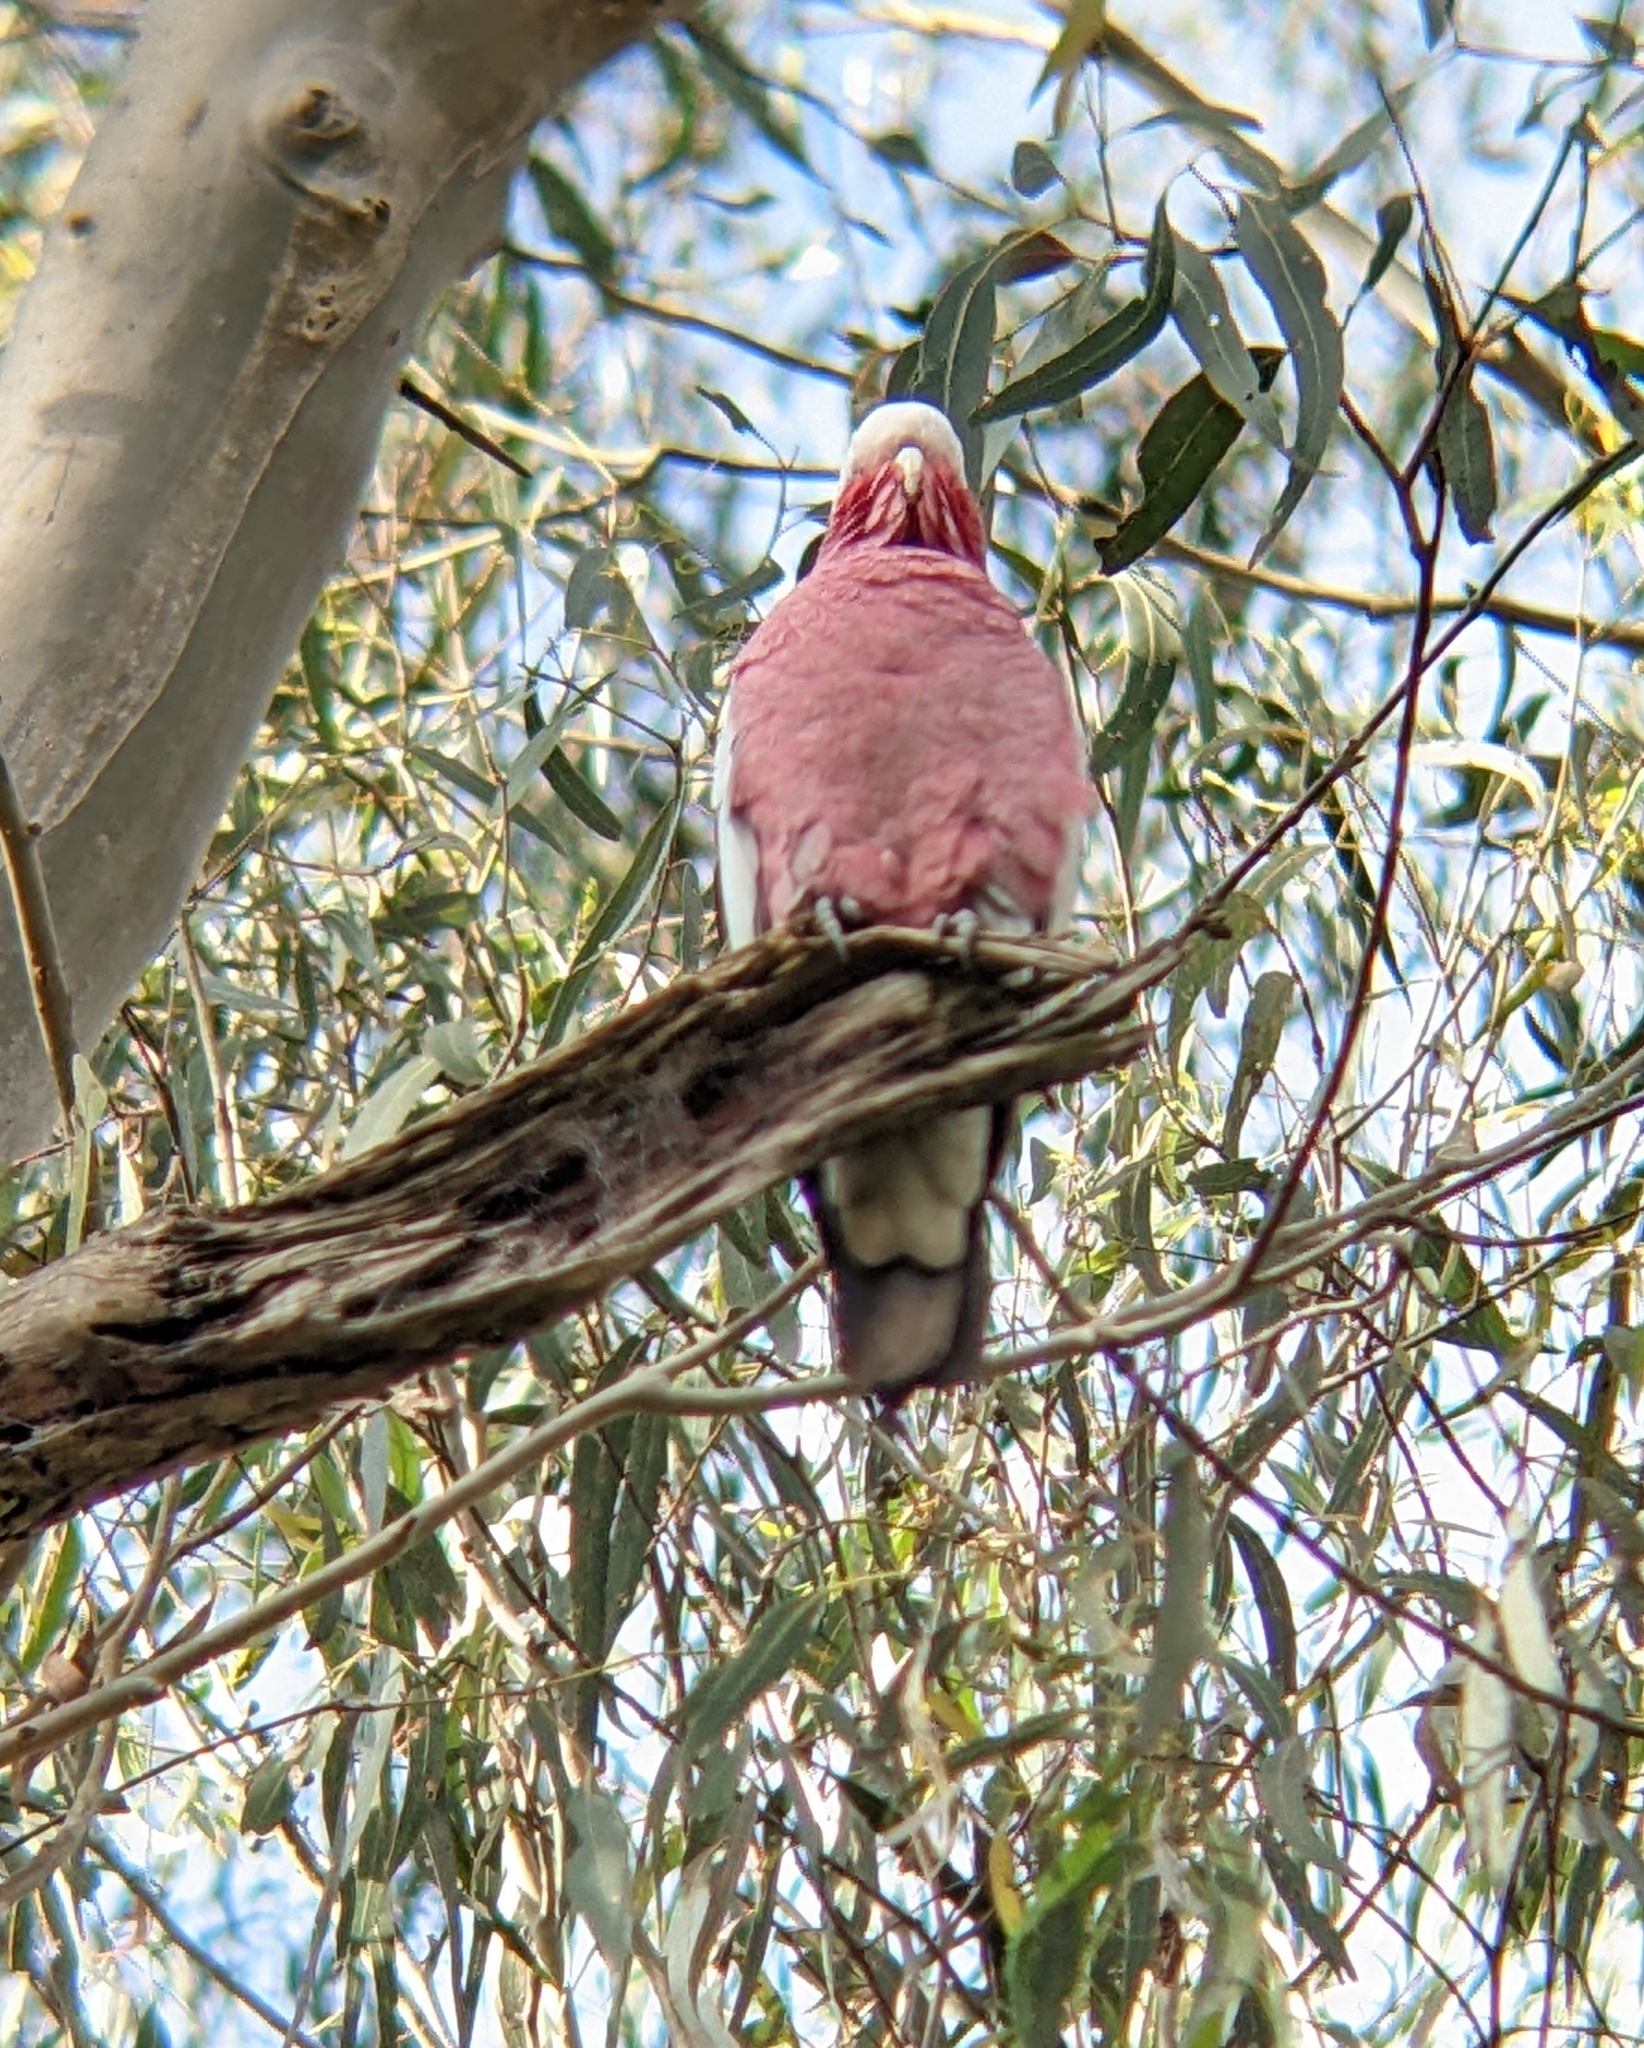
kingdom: Animalia
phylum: Chordata
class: Aves
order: Psittaciformes
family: Psittacidae
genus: Eolophus
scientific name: Eolophus roseicapilla
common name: Galah
